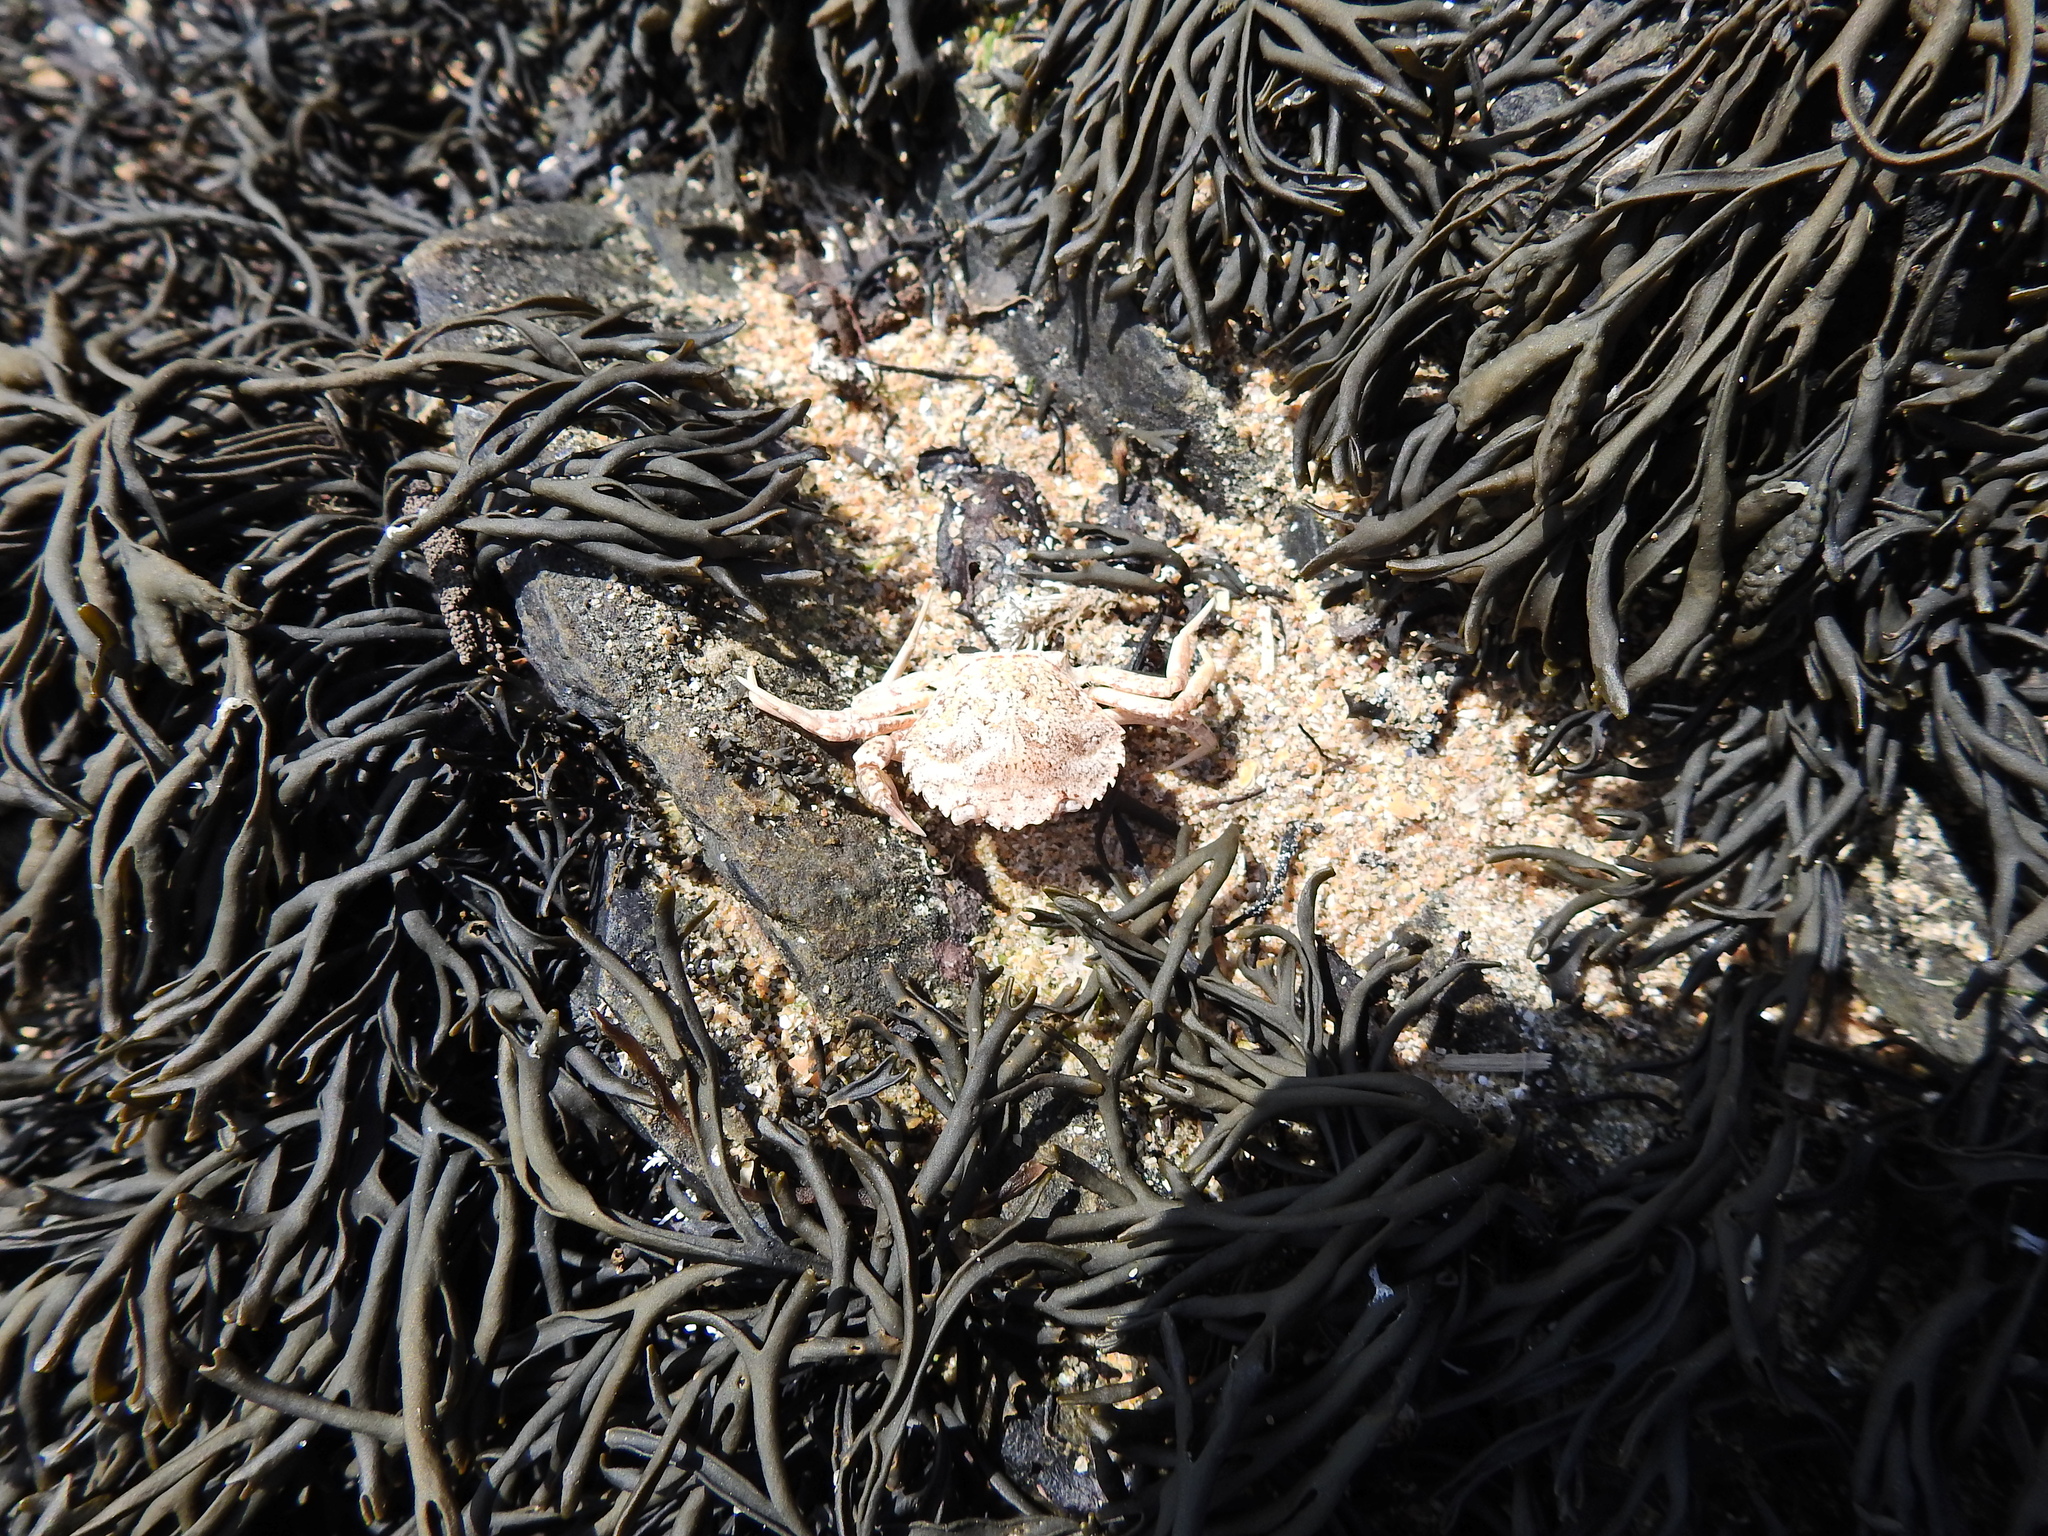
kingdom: Animalia
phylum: Arthropoda
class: Malacostraca
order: Decapoda
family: Carcinidae
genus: Carcinus
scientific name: Carcinus maenas
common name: European green crab
